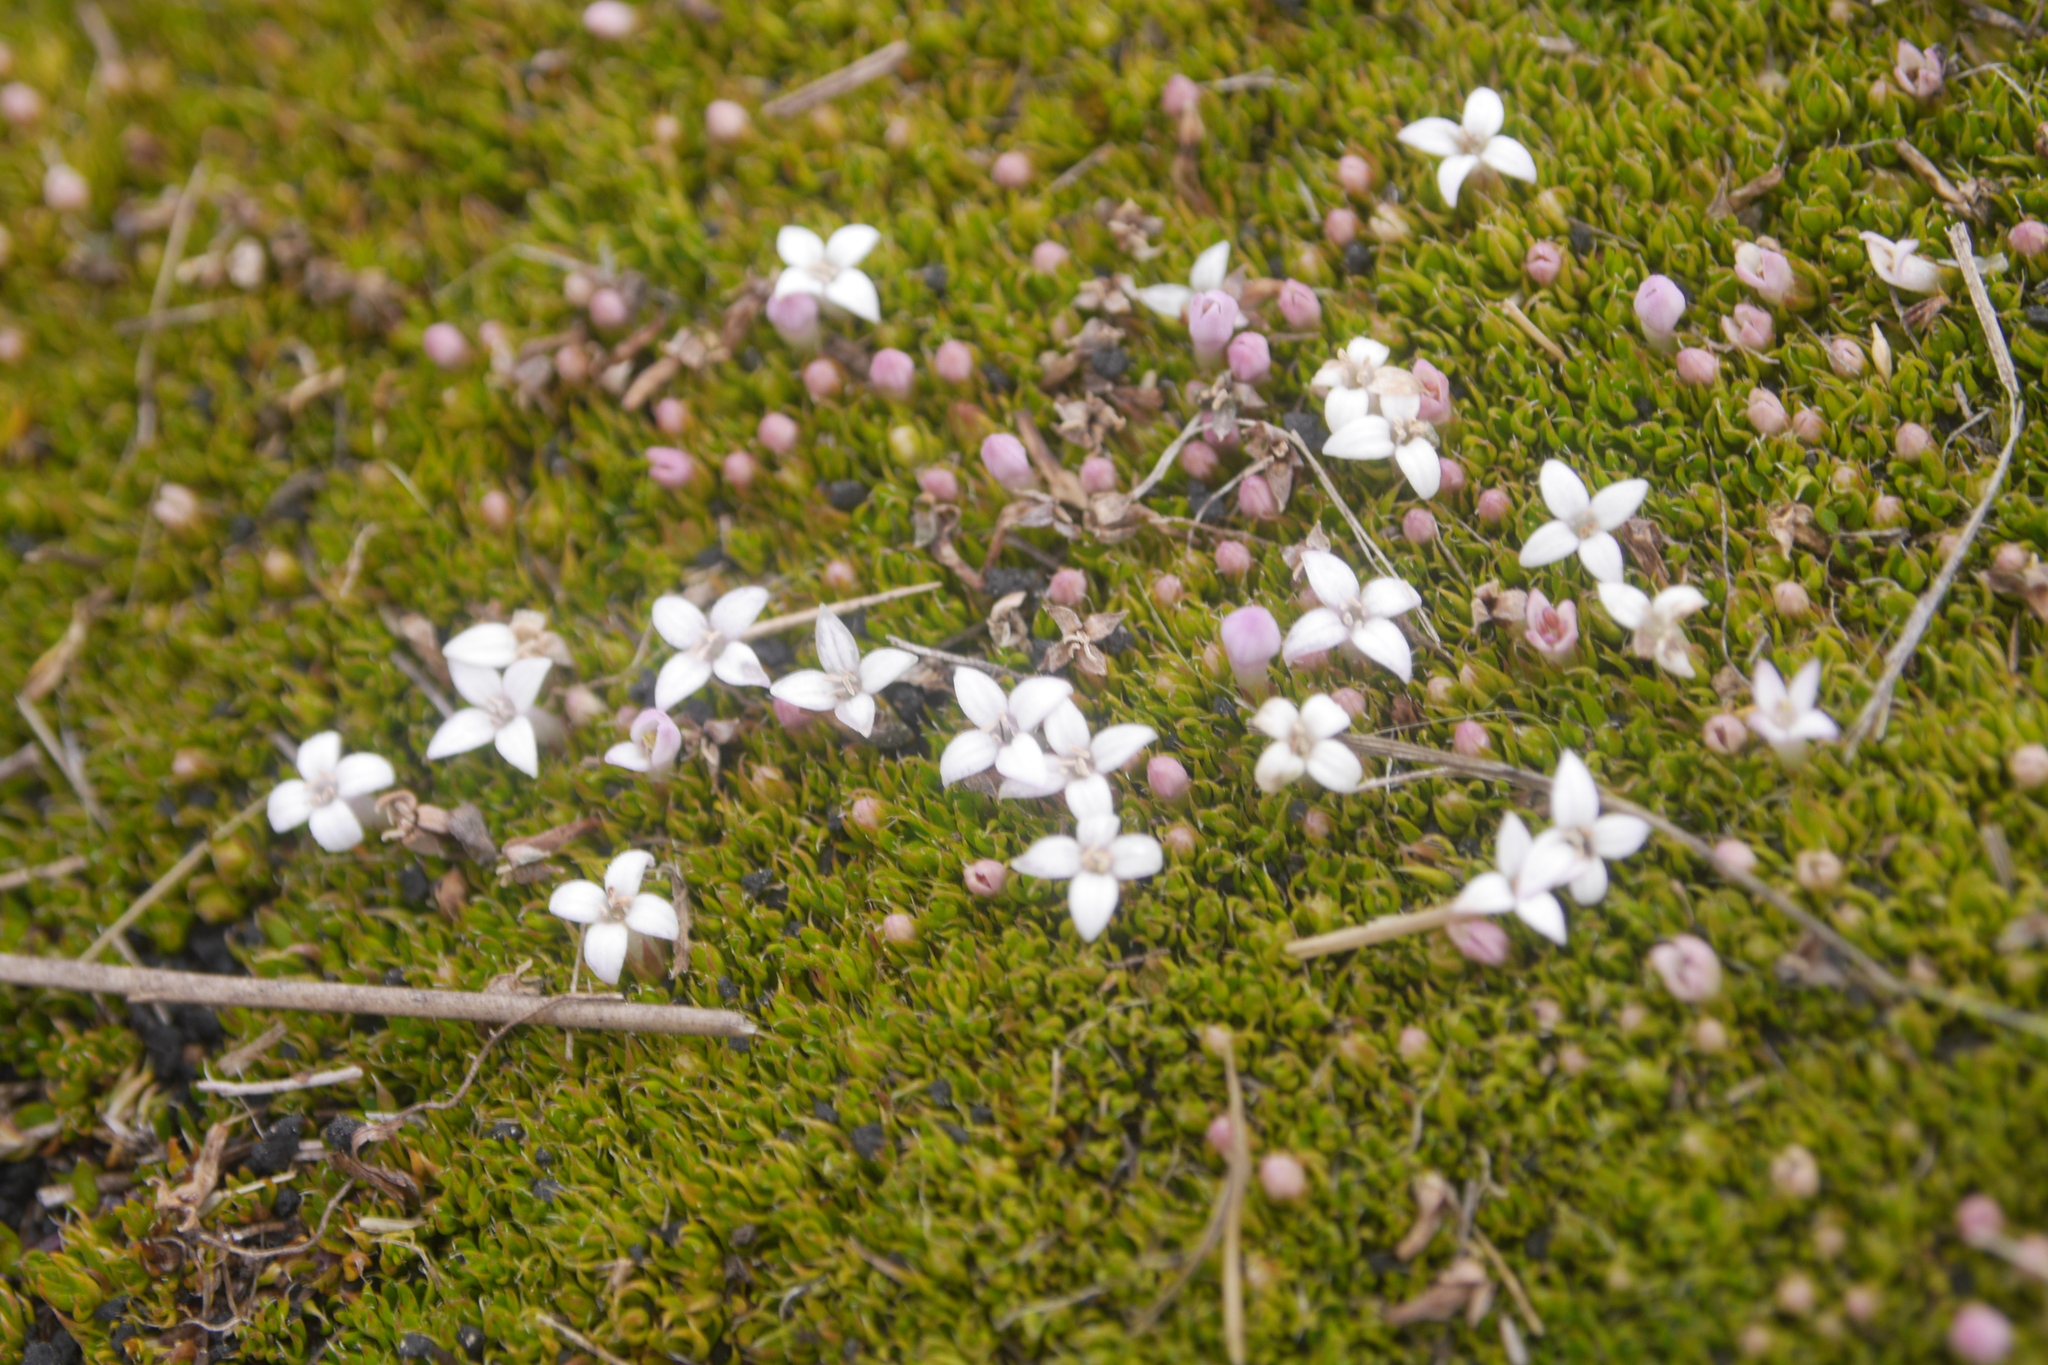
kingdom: Plantae
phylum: Tracheophyta
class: Magnoliopsida
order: Gentianales
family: Rubiaceae
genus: Arcytophyllum
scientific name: Arcytophyllum filiforme
